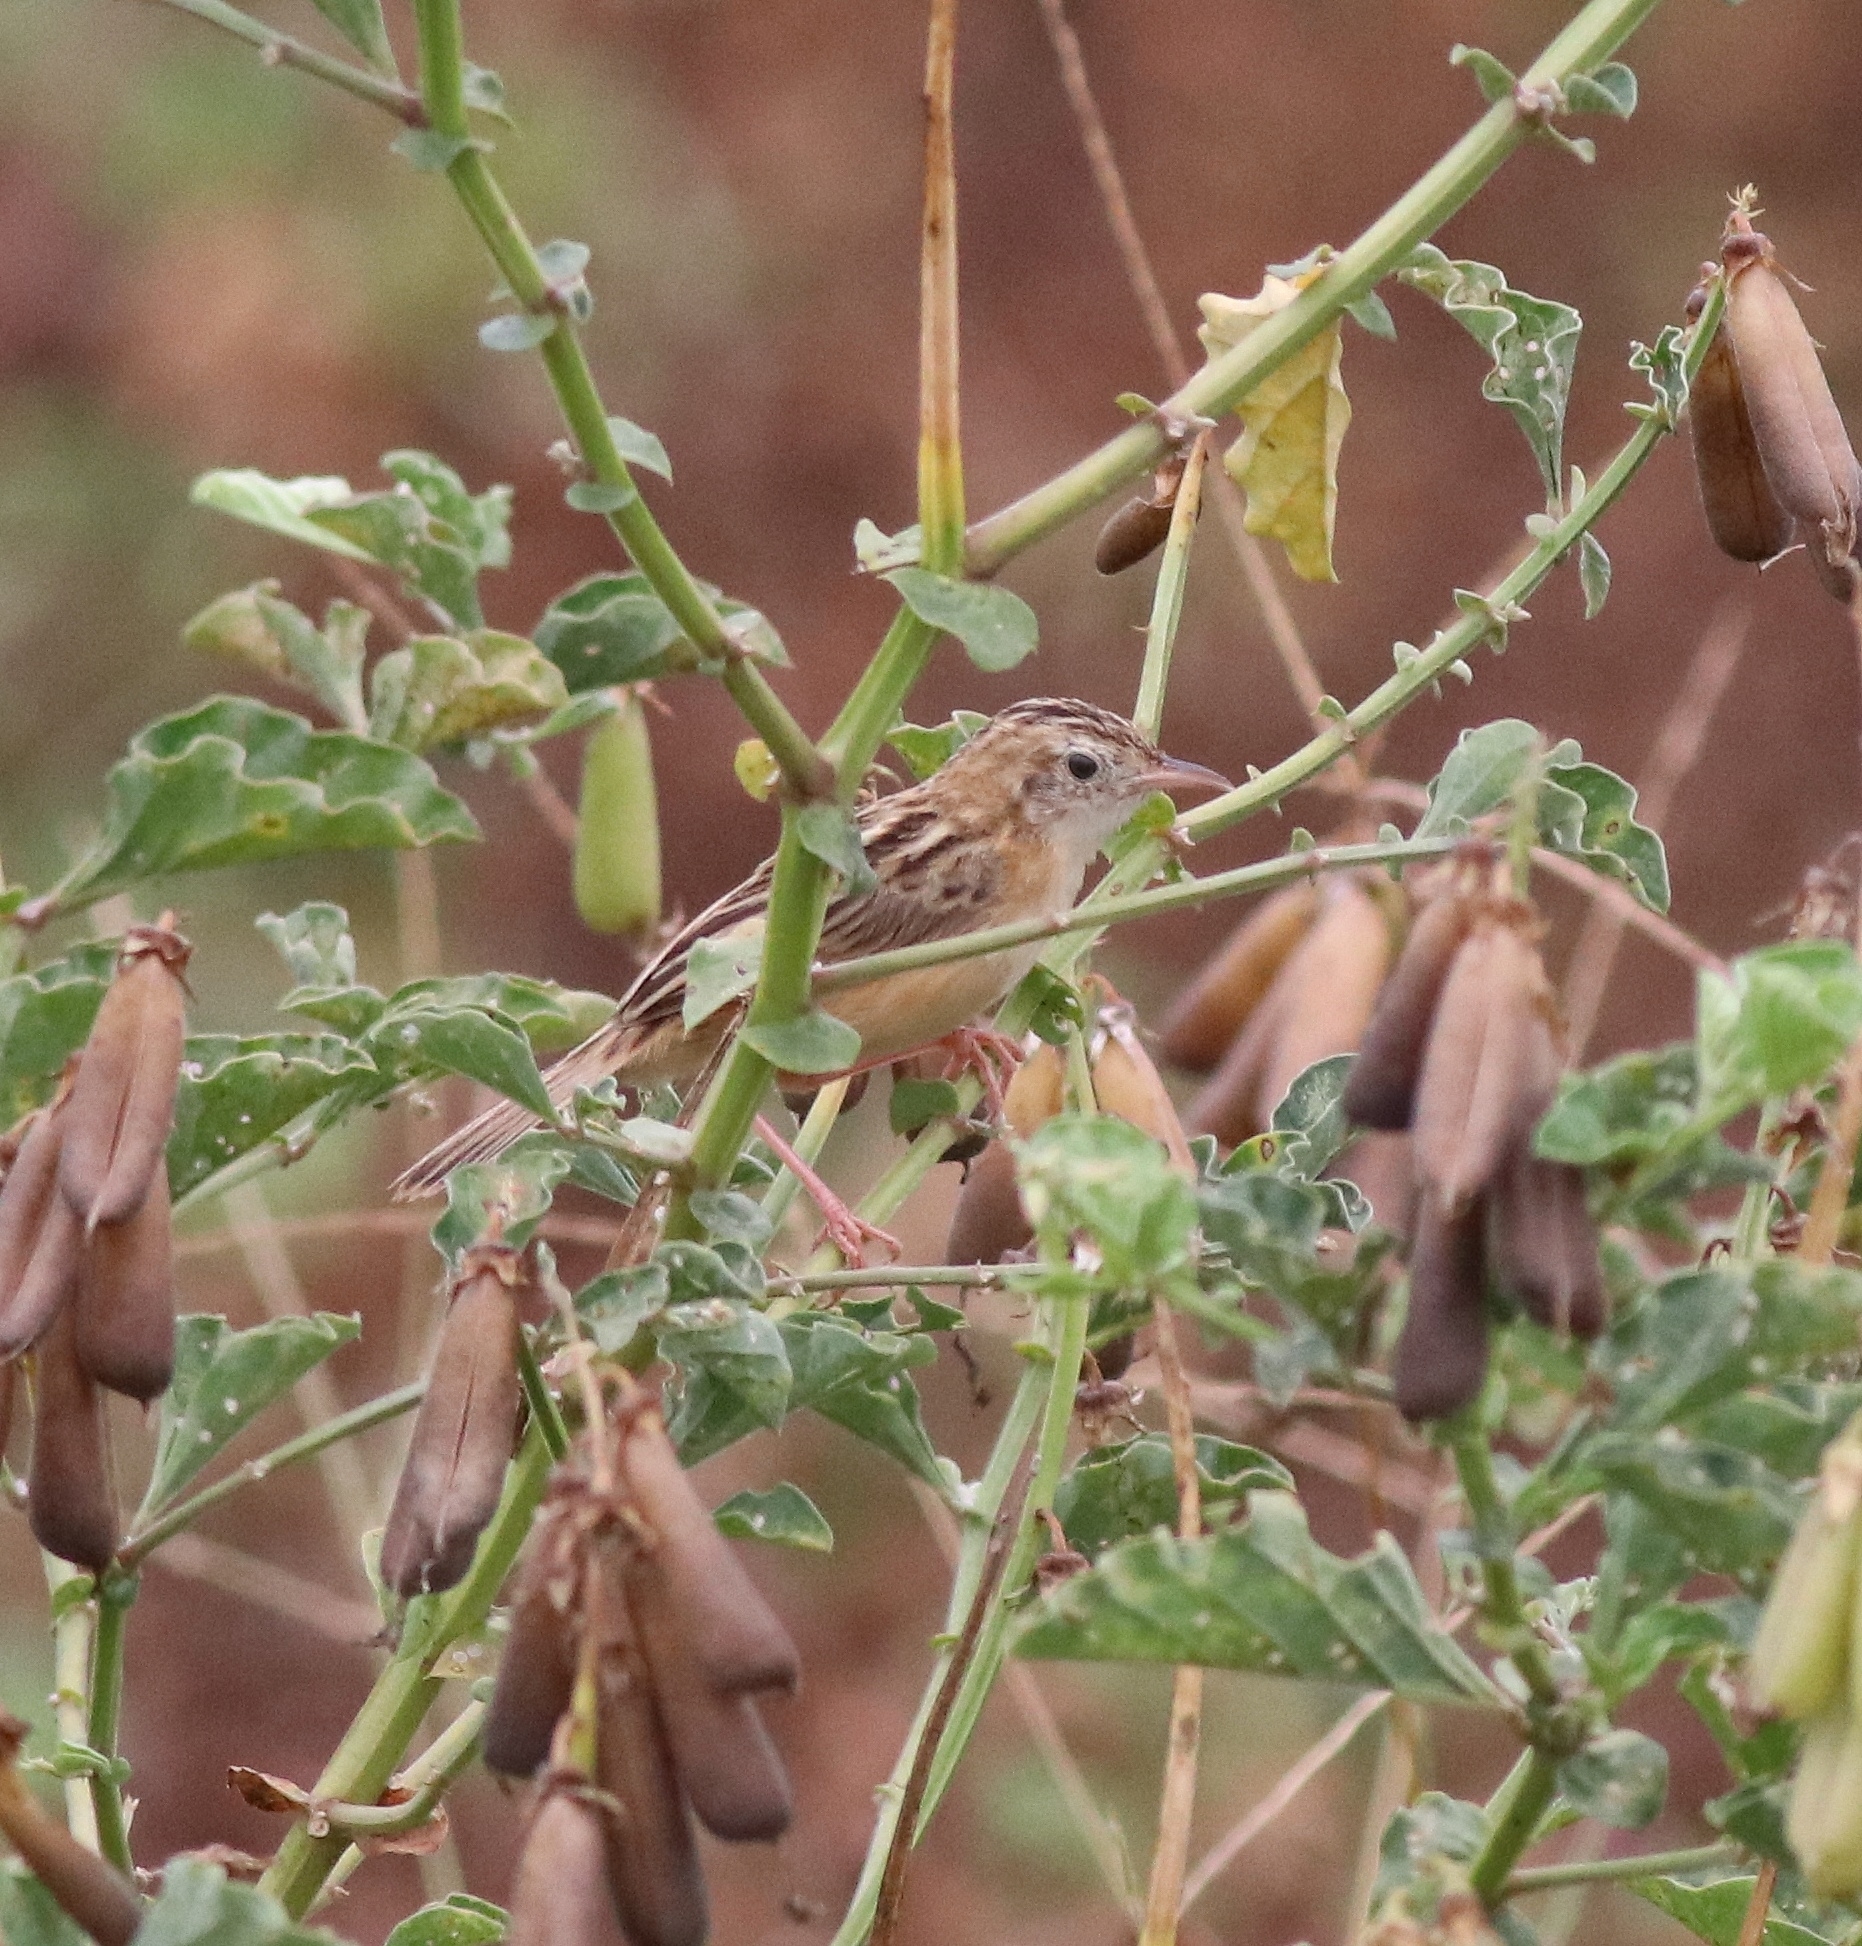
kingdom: Animalia
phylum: Chordata
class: Aves
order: Passeriformes
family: Cisticolidae
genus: Cisticola
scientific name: Cisticola juncidis
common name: Zitting cisticola
